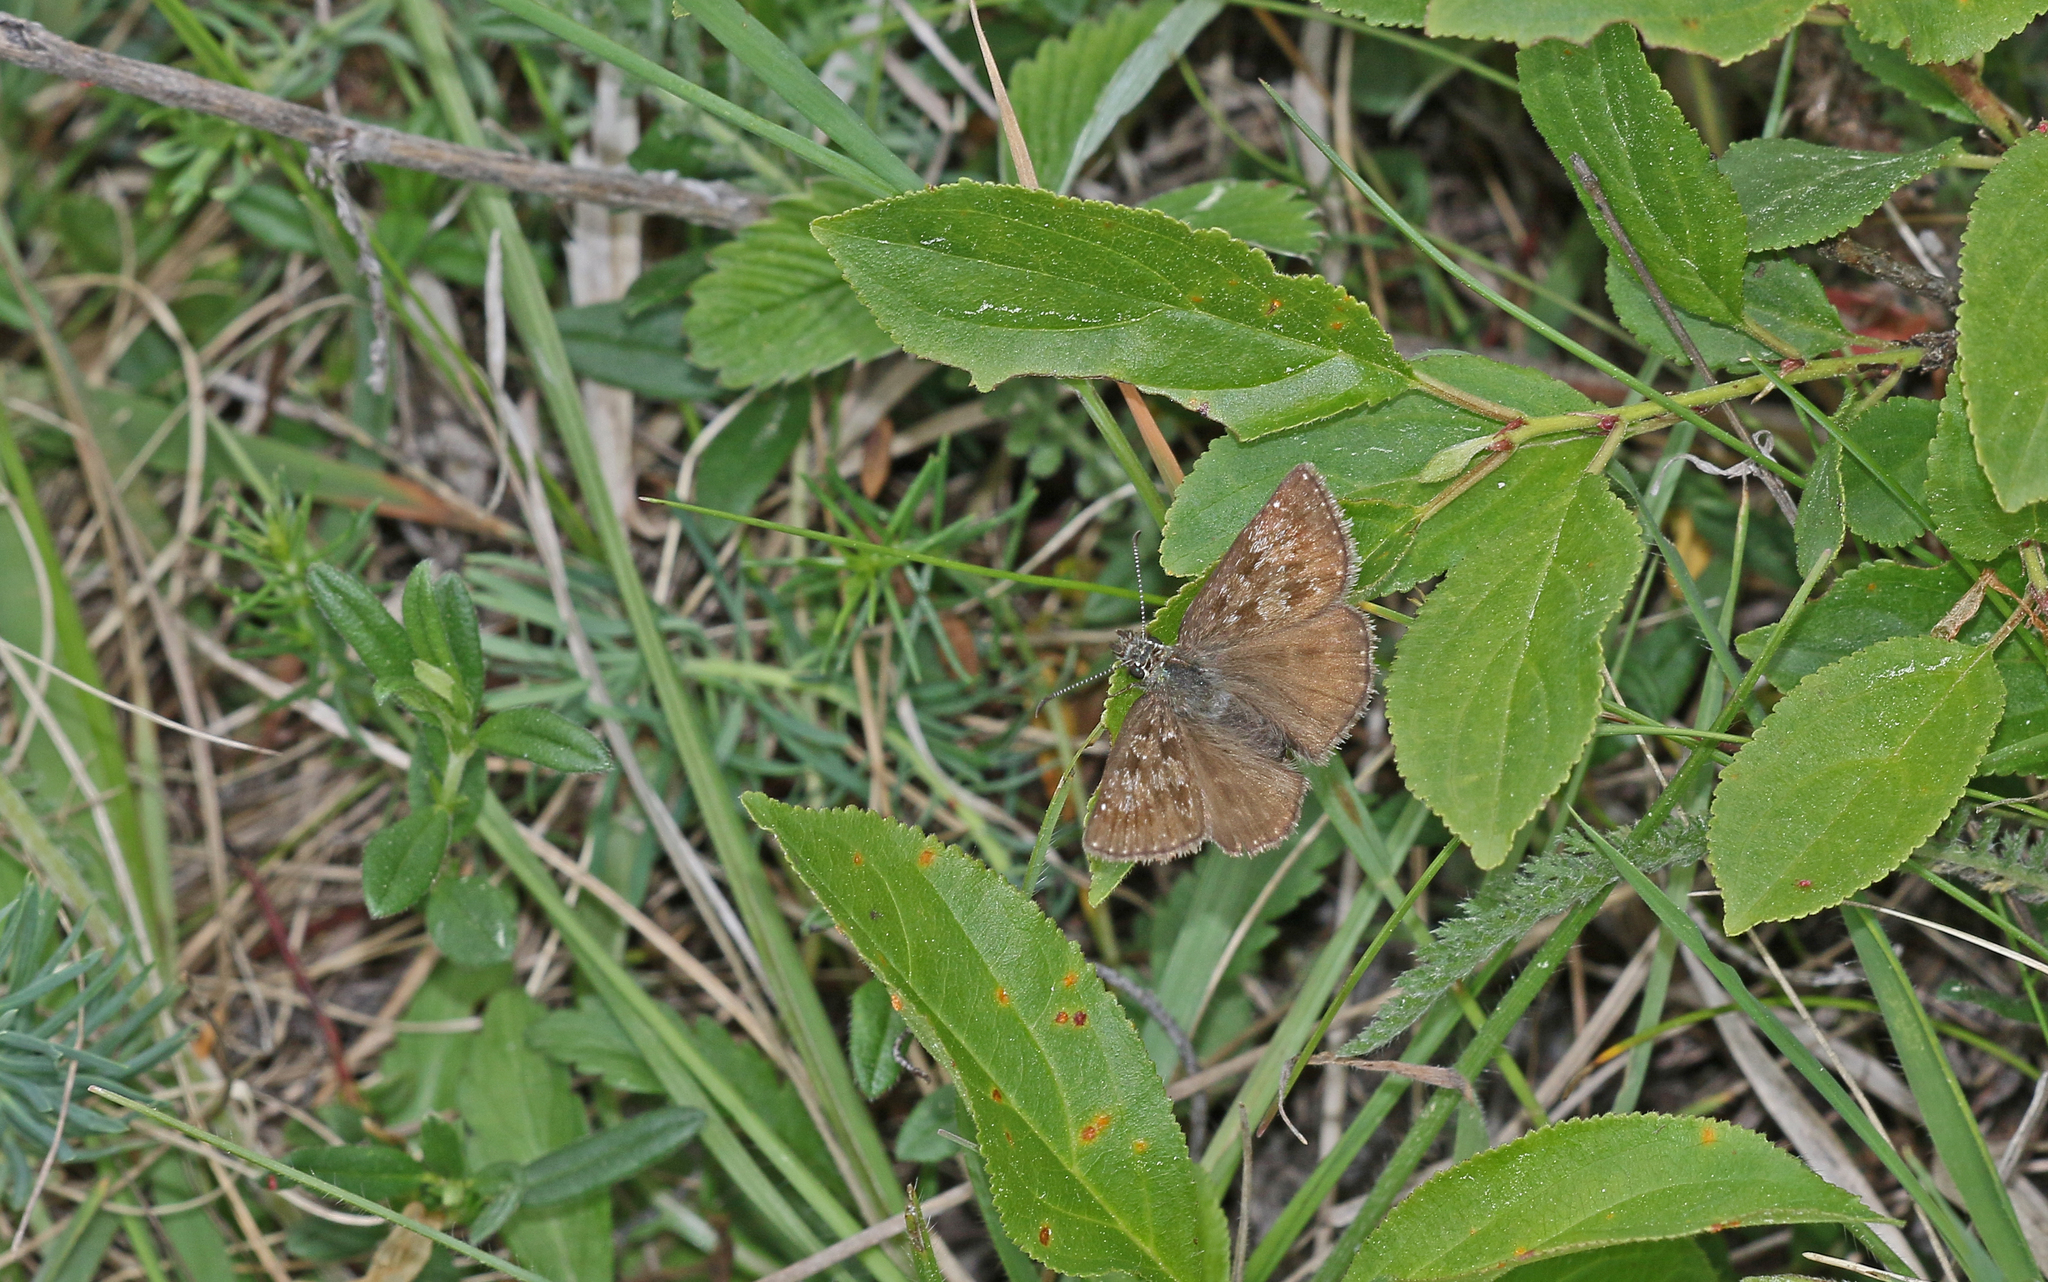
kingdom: Animalia
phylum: Arthropoda
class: Insecta
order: Lepidoptera
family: Hesperiidae
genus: Erynnis
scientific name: Erynnis tages
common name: Dingy skipper
